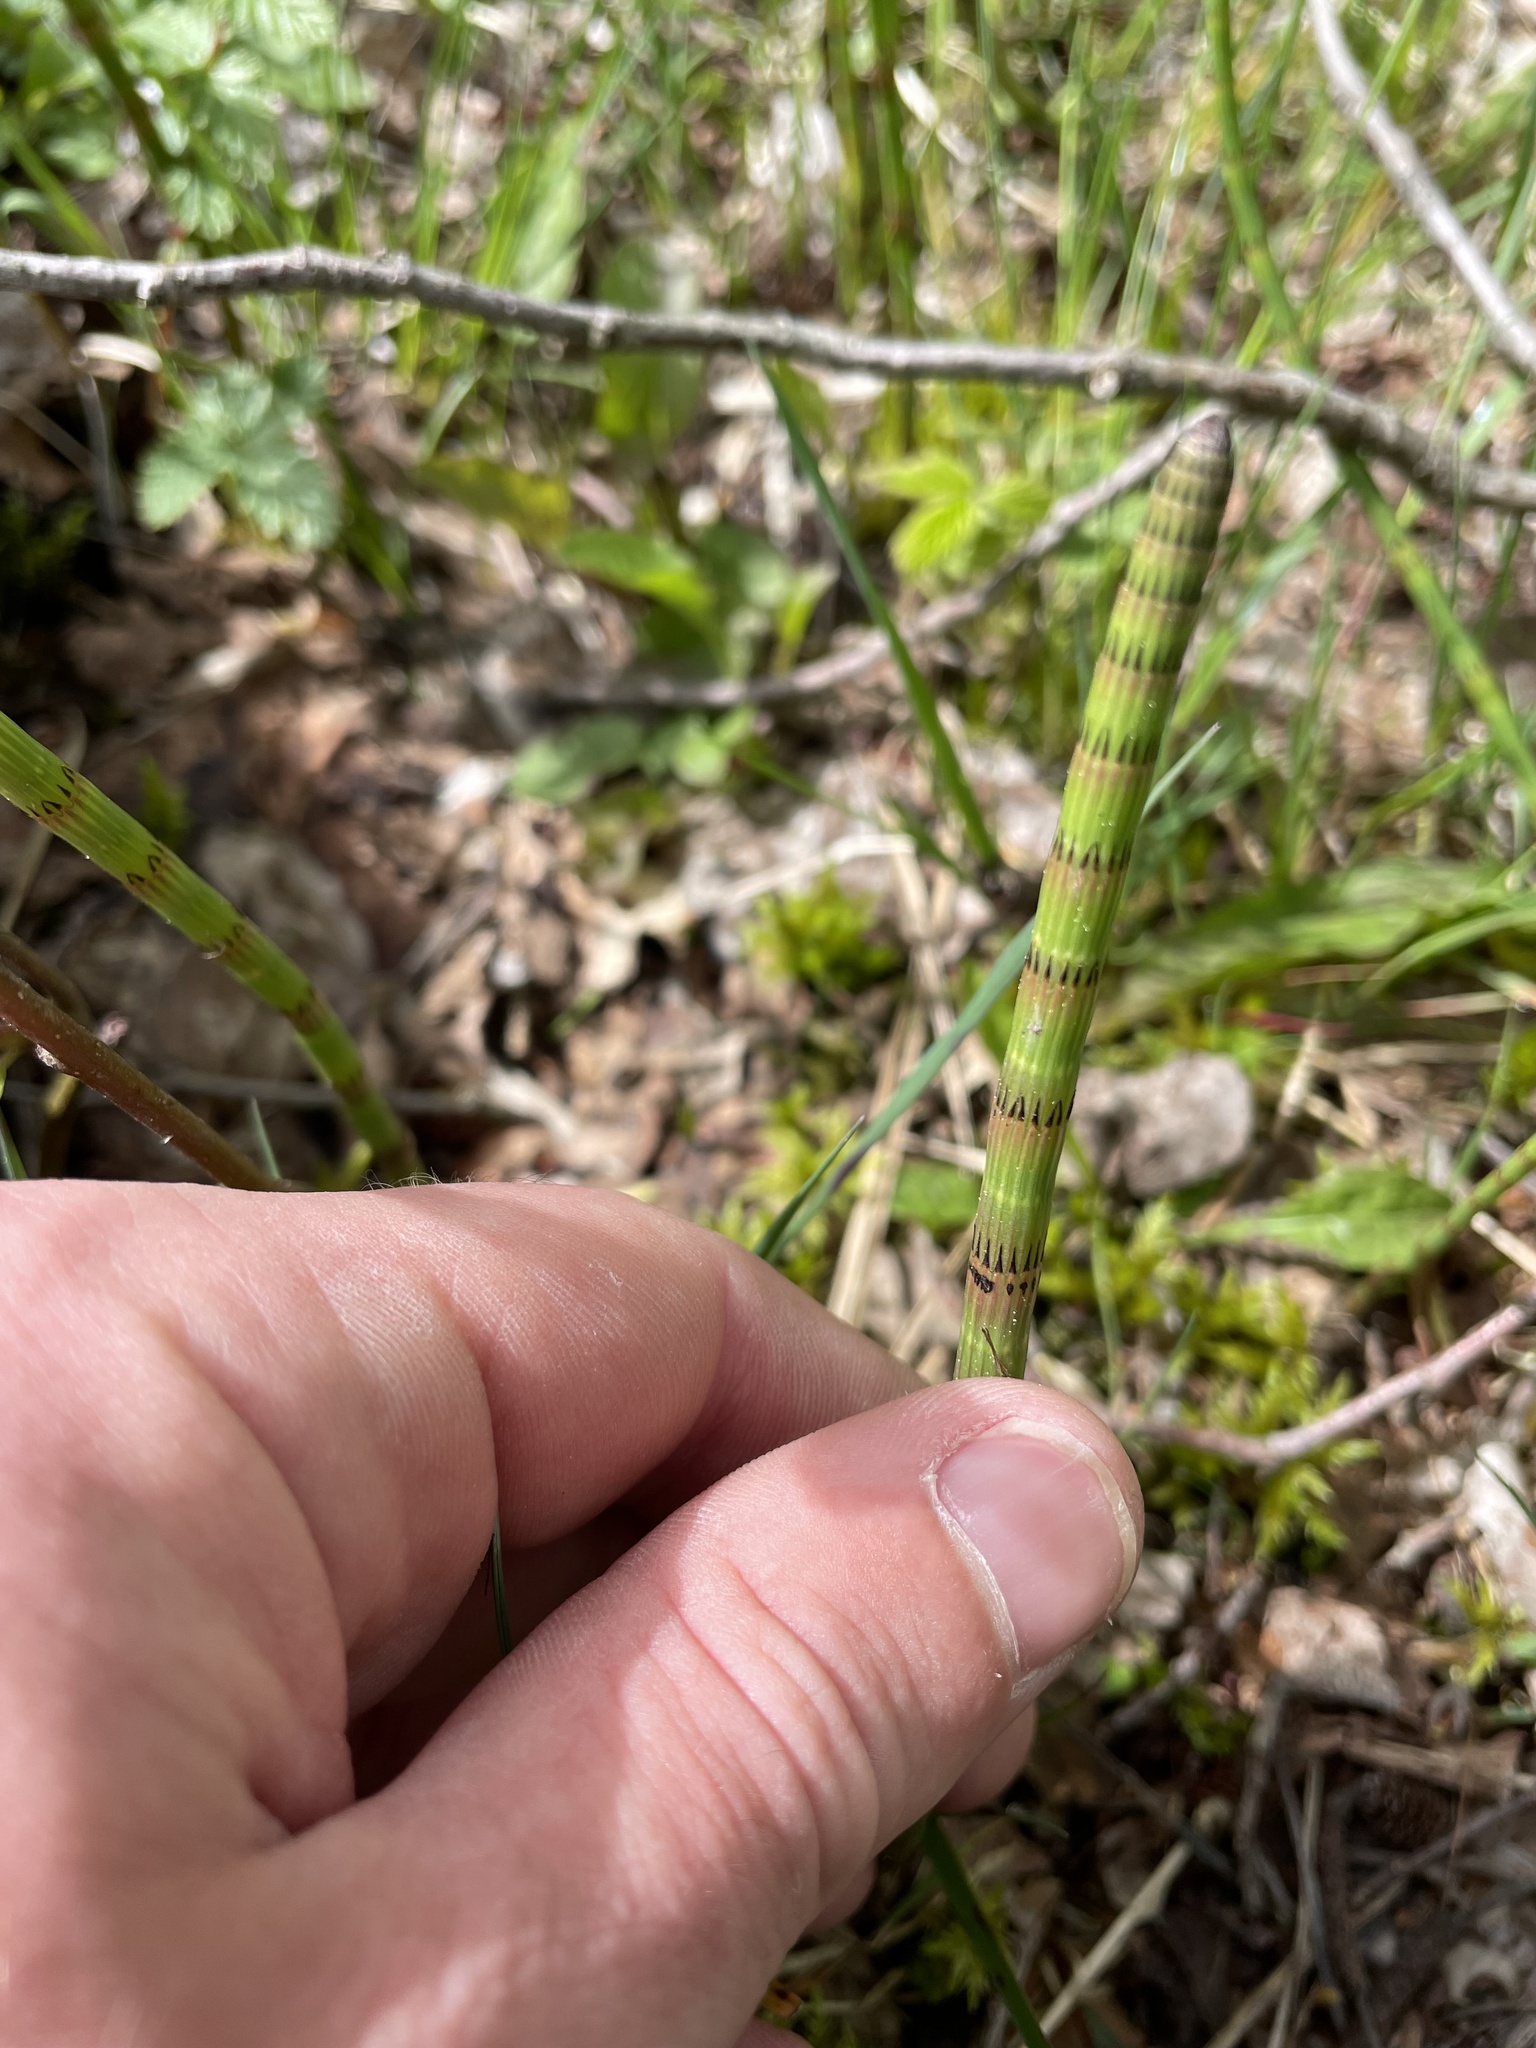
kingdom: Plantae
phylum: Tracheophyta
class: Polypodiopsida
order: Equisetales
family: Equisetaceae
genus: Equisetum
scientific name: Equisetum fluviatile
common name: Water horsetail
